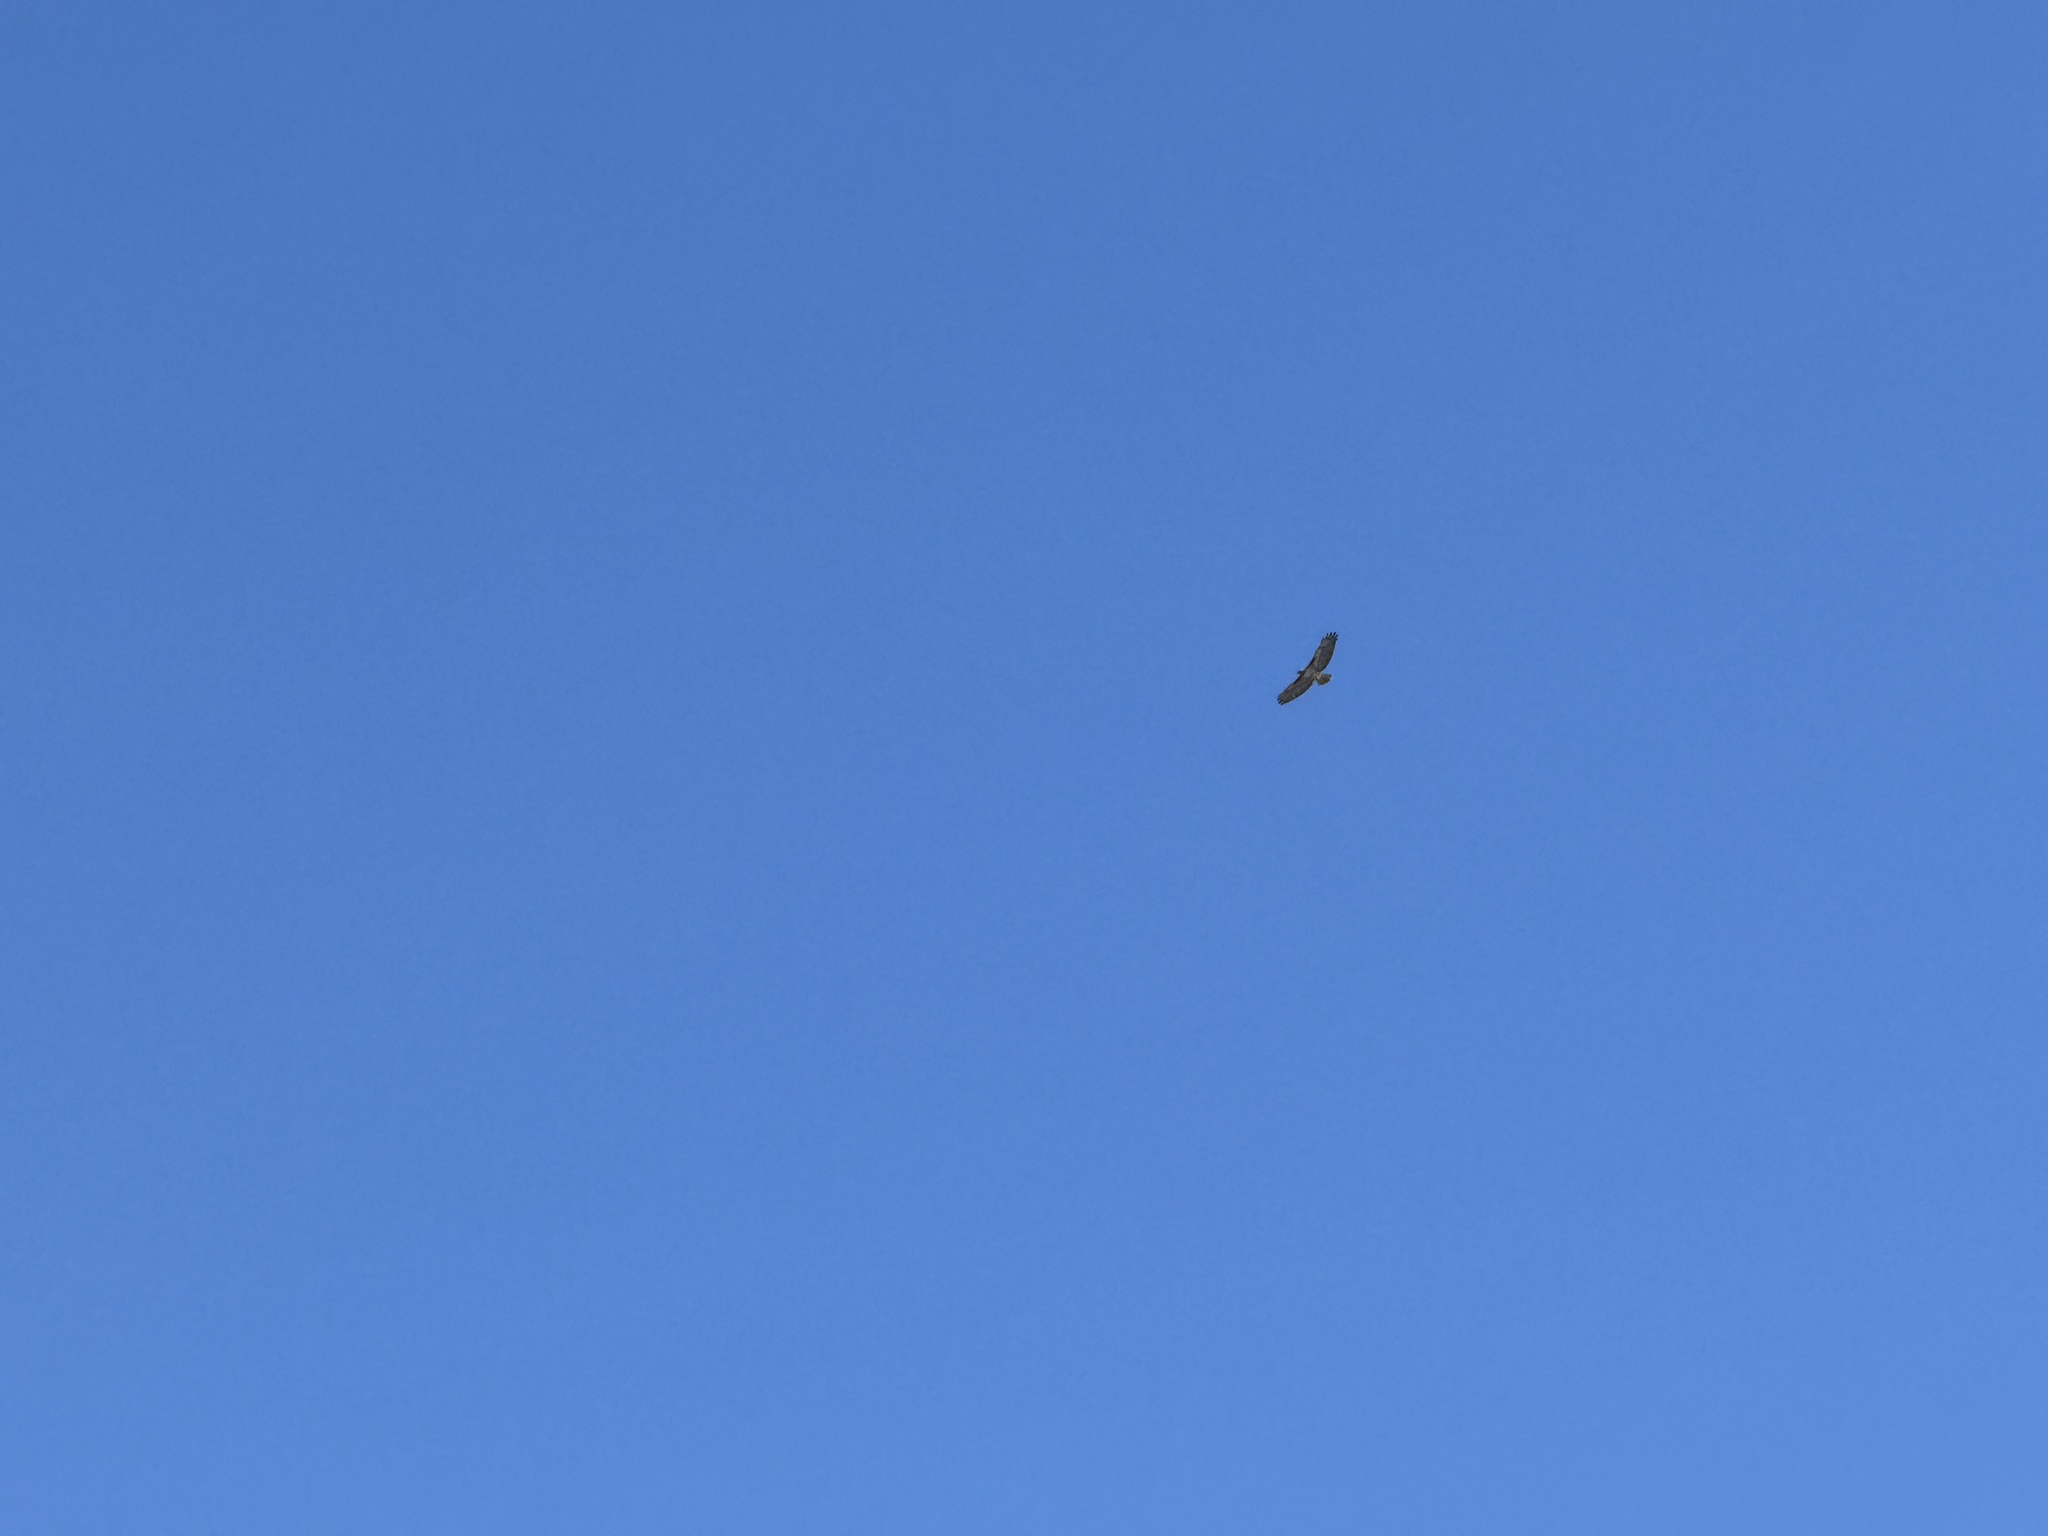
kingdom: Animalia
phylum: Chordata
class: Aves
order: Accipitriformes
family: Accipitridae
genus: Buteo
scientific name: Buteo jamaicensis
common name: Red-tailed hawk
